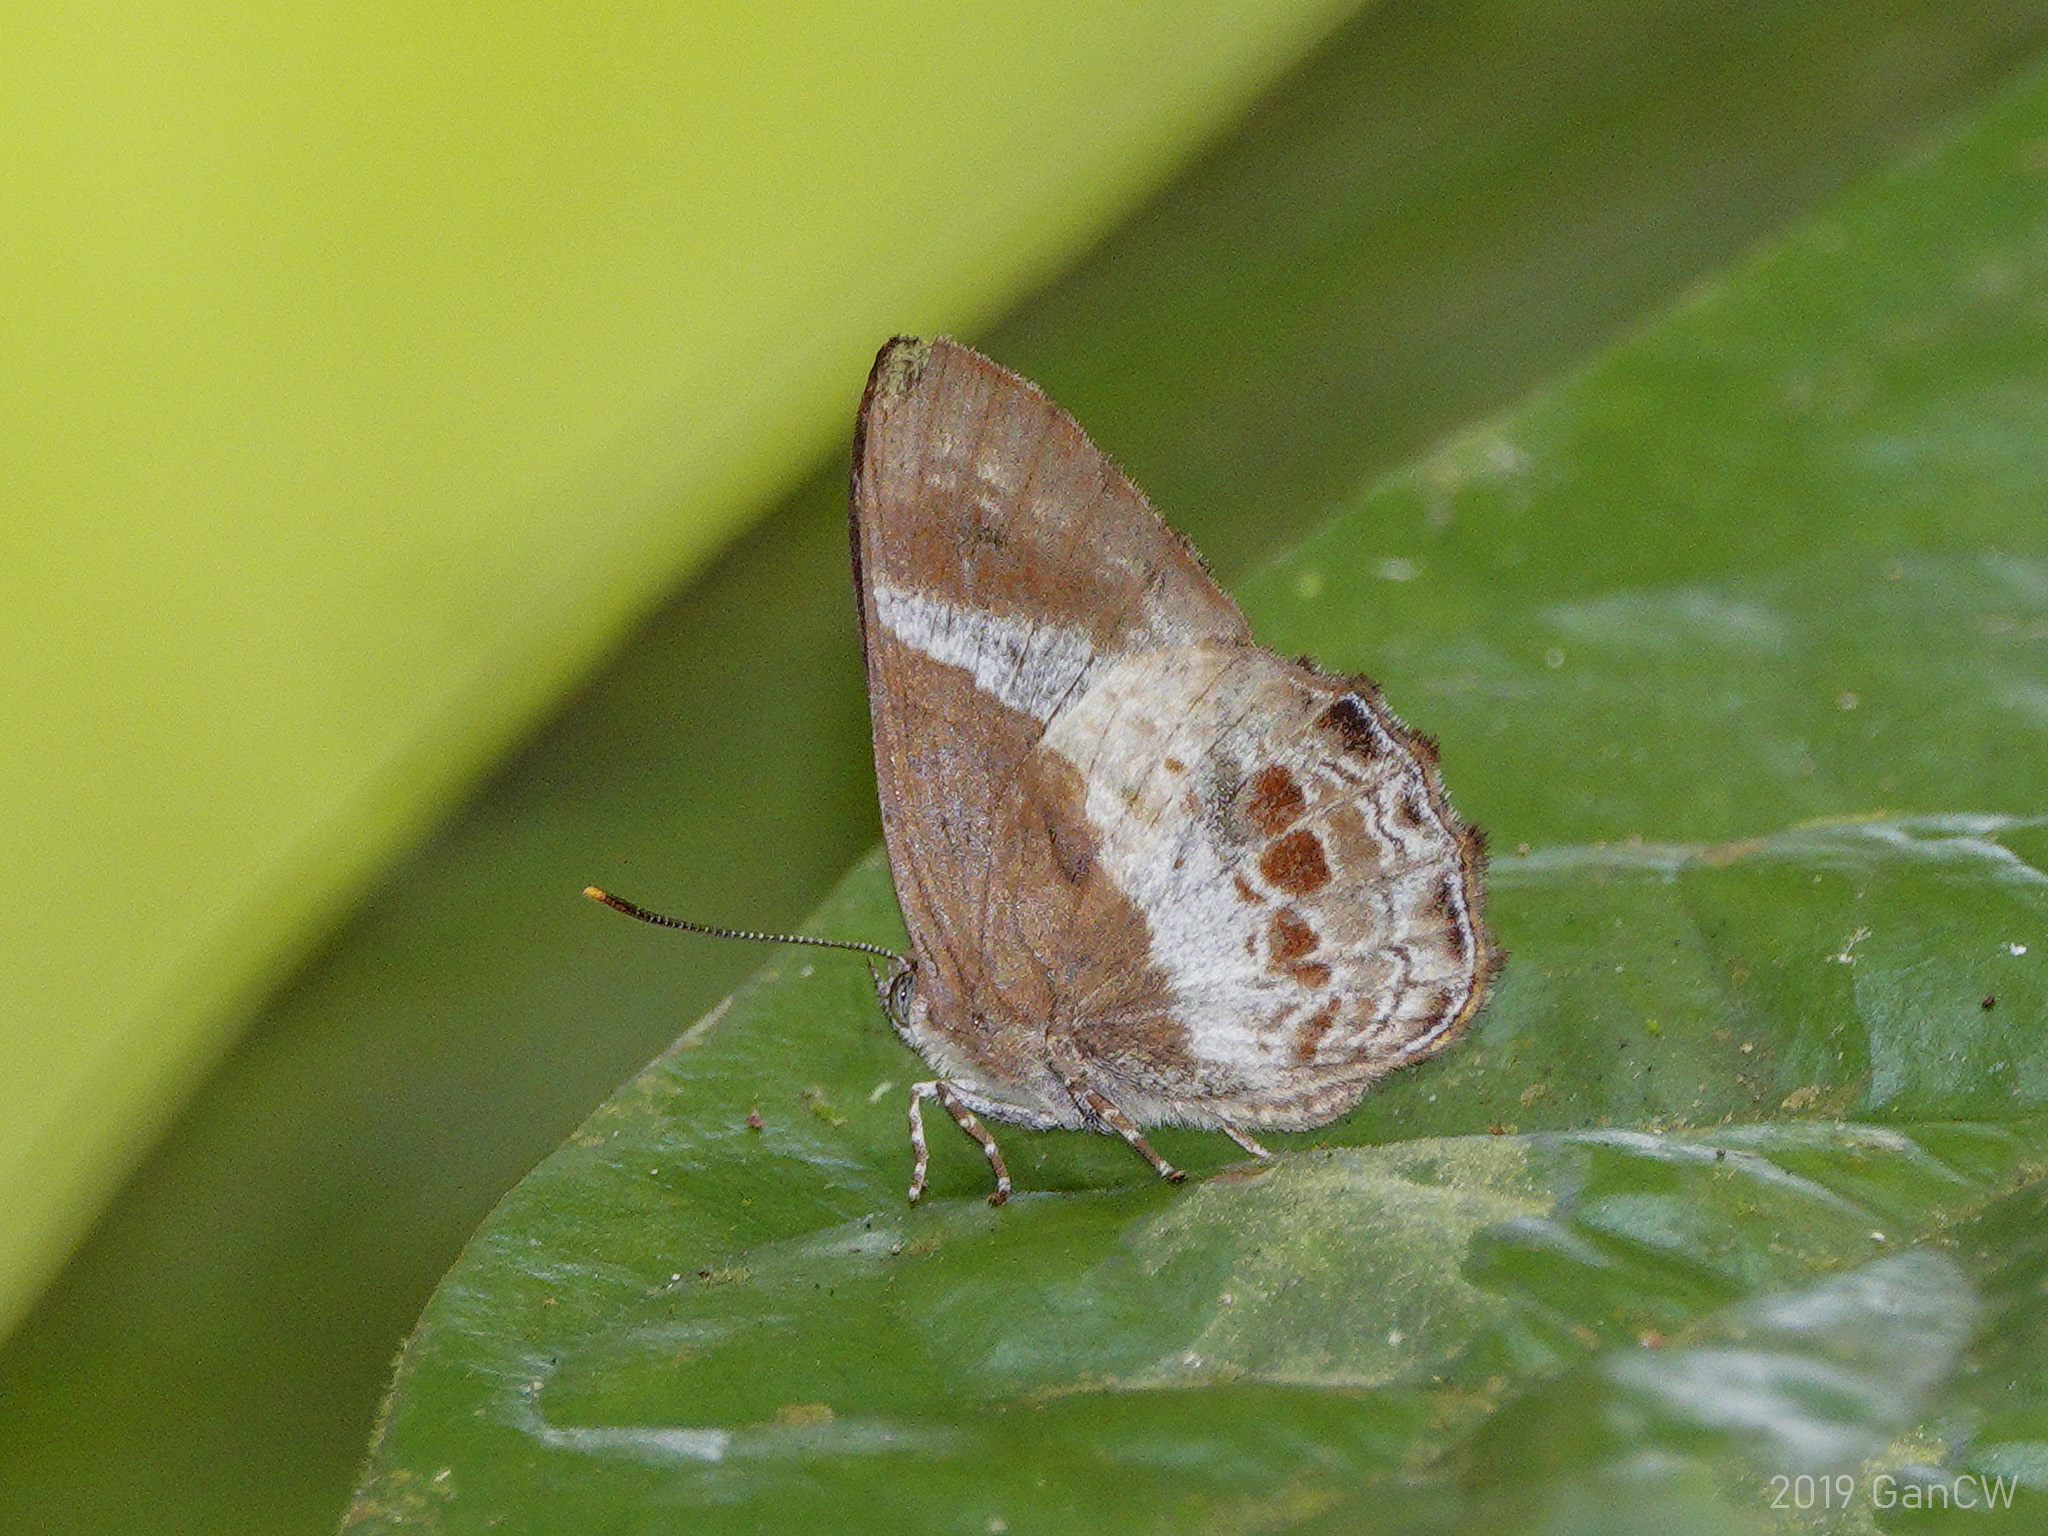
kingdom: Animalia
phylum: Arthropoda
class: Insecta
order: Lepidoptera
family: Lycaenidae
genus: Simiskina
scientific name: Simiskina
